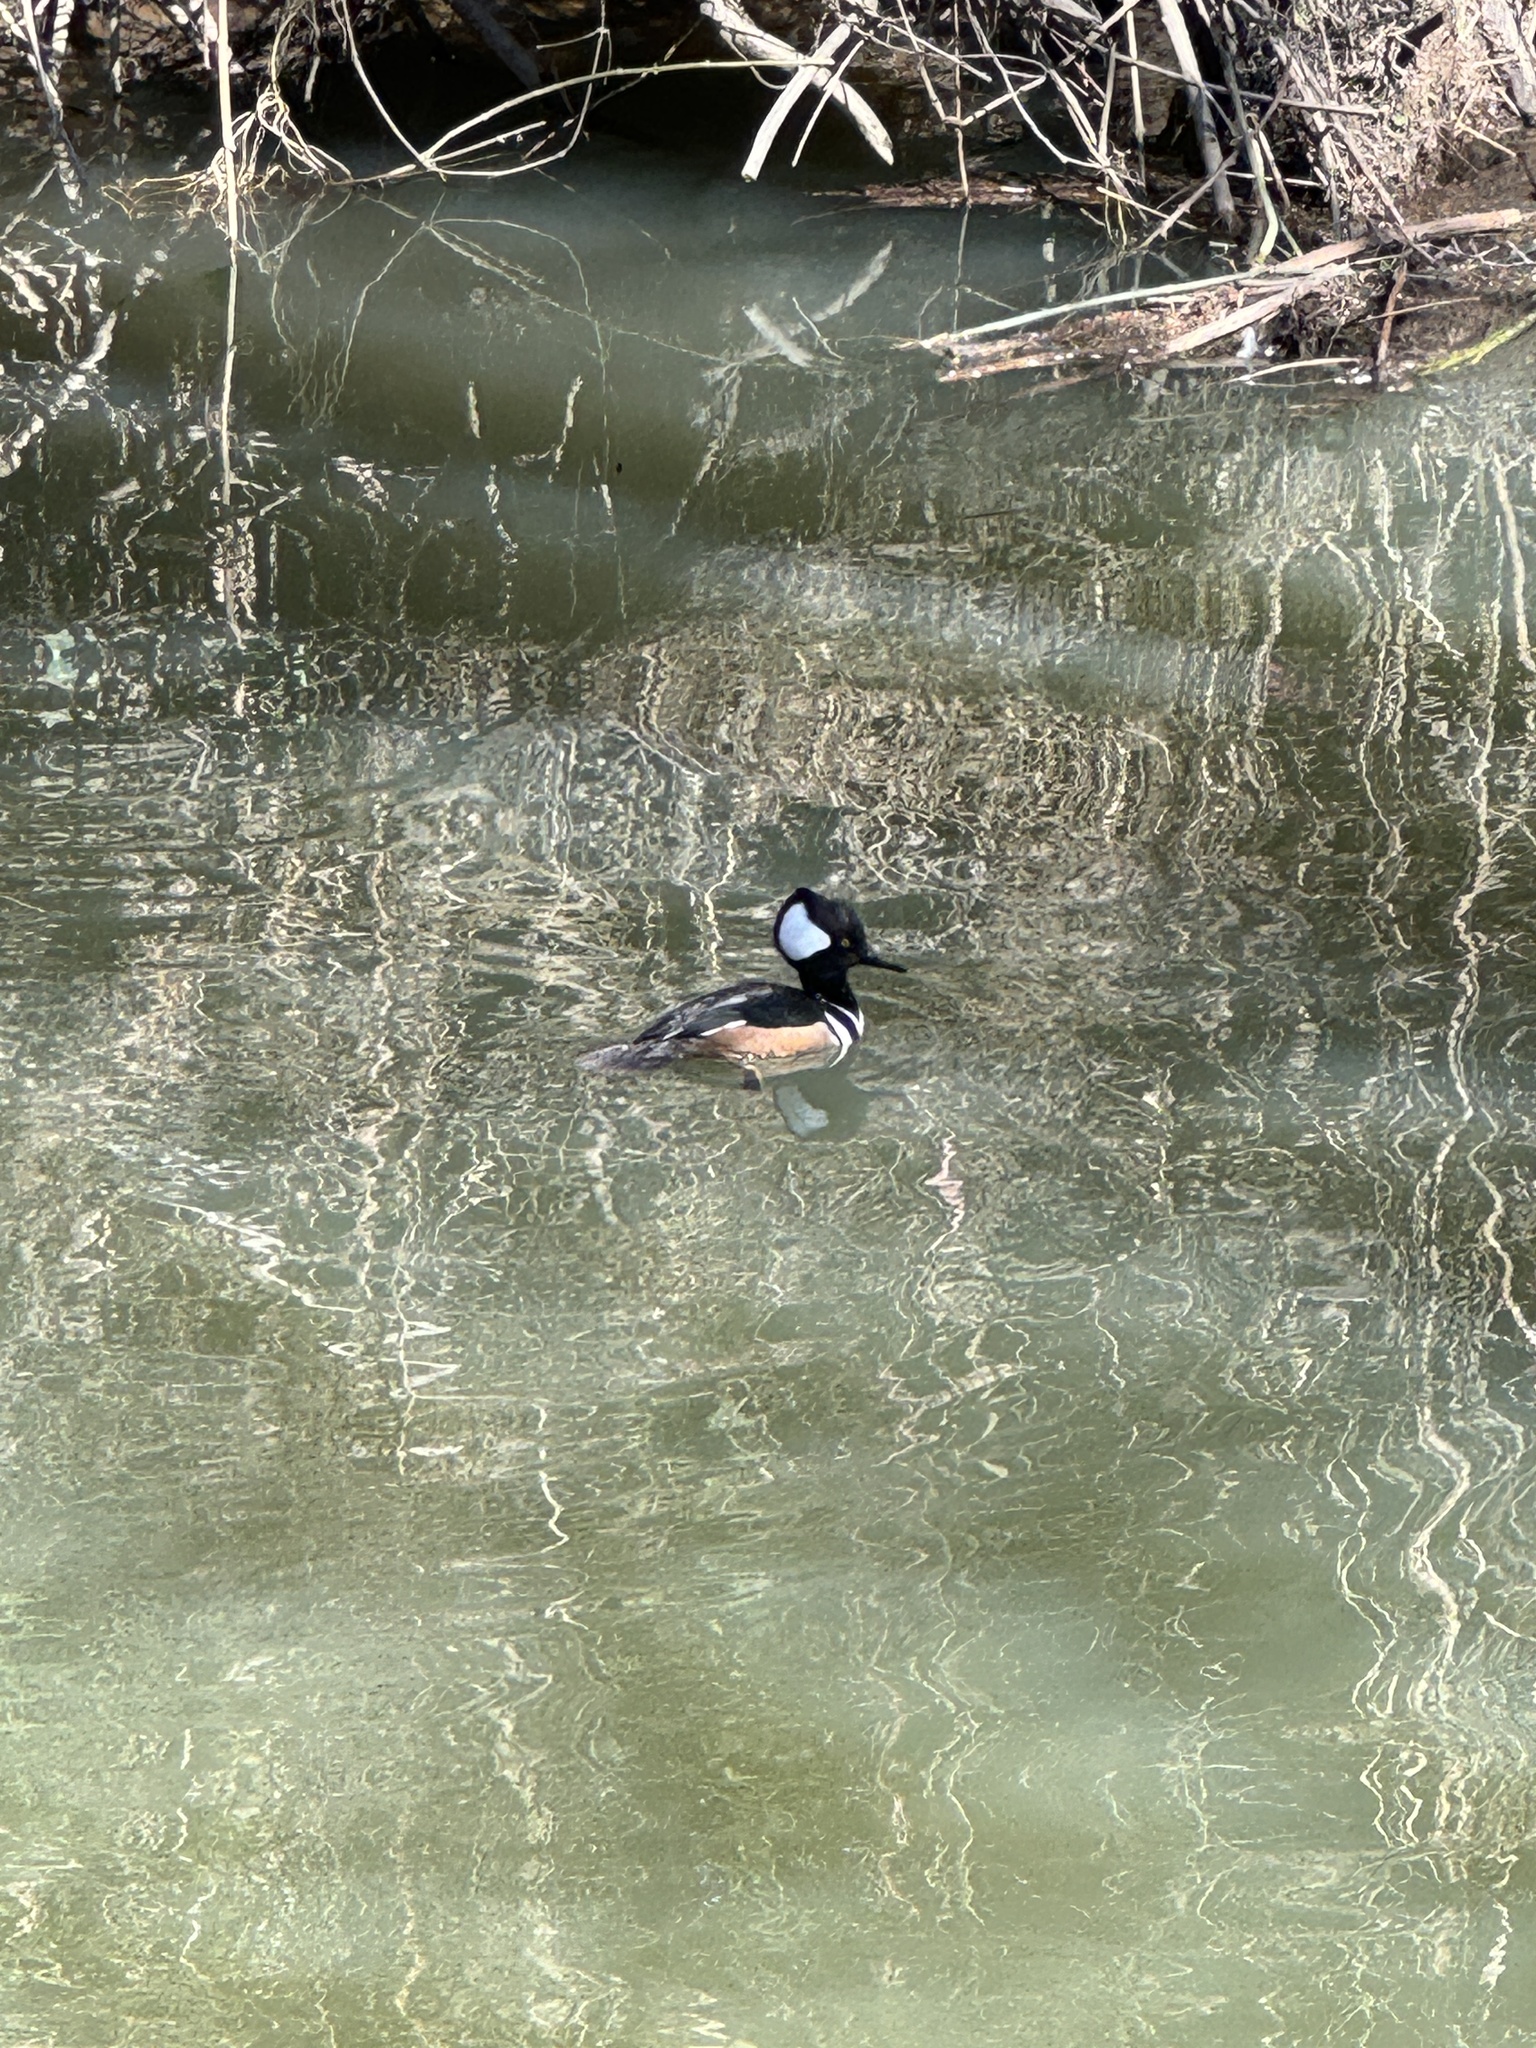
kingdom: Animalia
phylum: Chordata
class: Aves
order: Anseriformes
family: Anatidae
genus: Lophodytes
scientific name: Lophodytes cucullatus
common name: Hooded merganser
